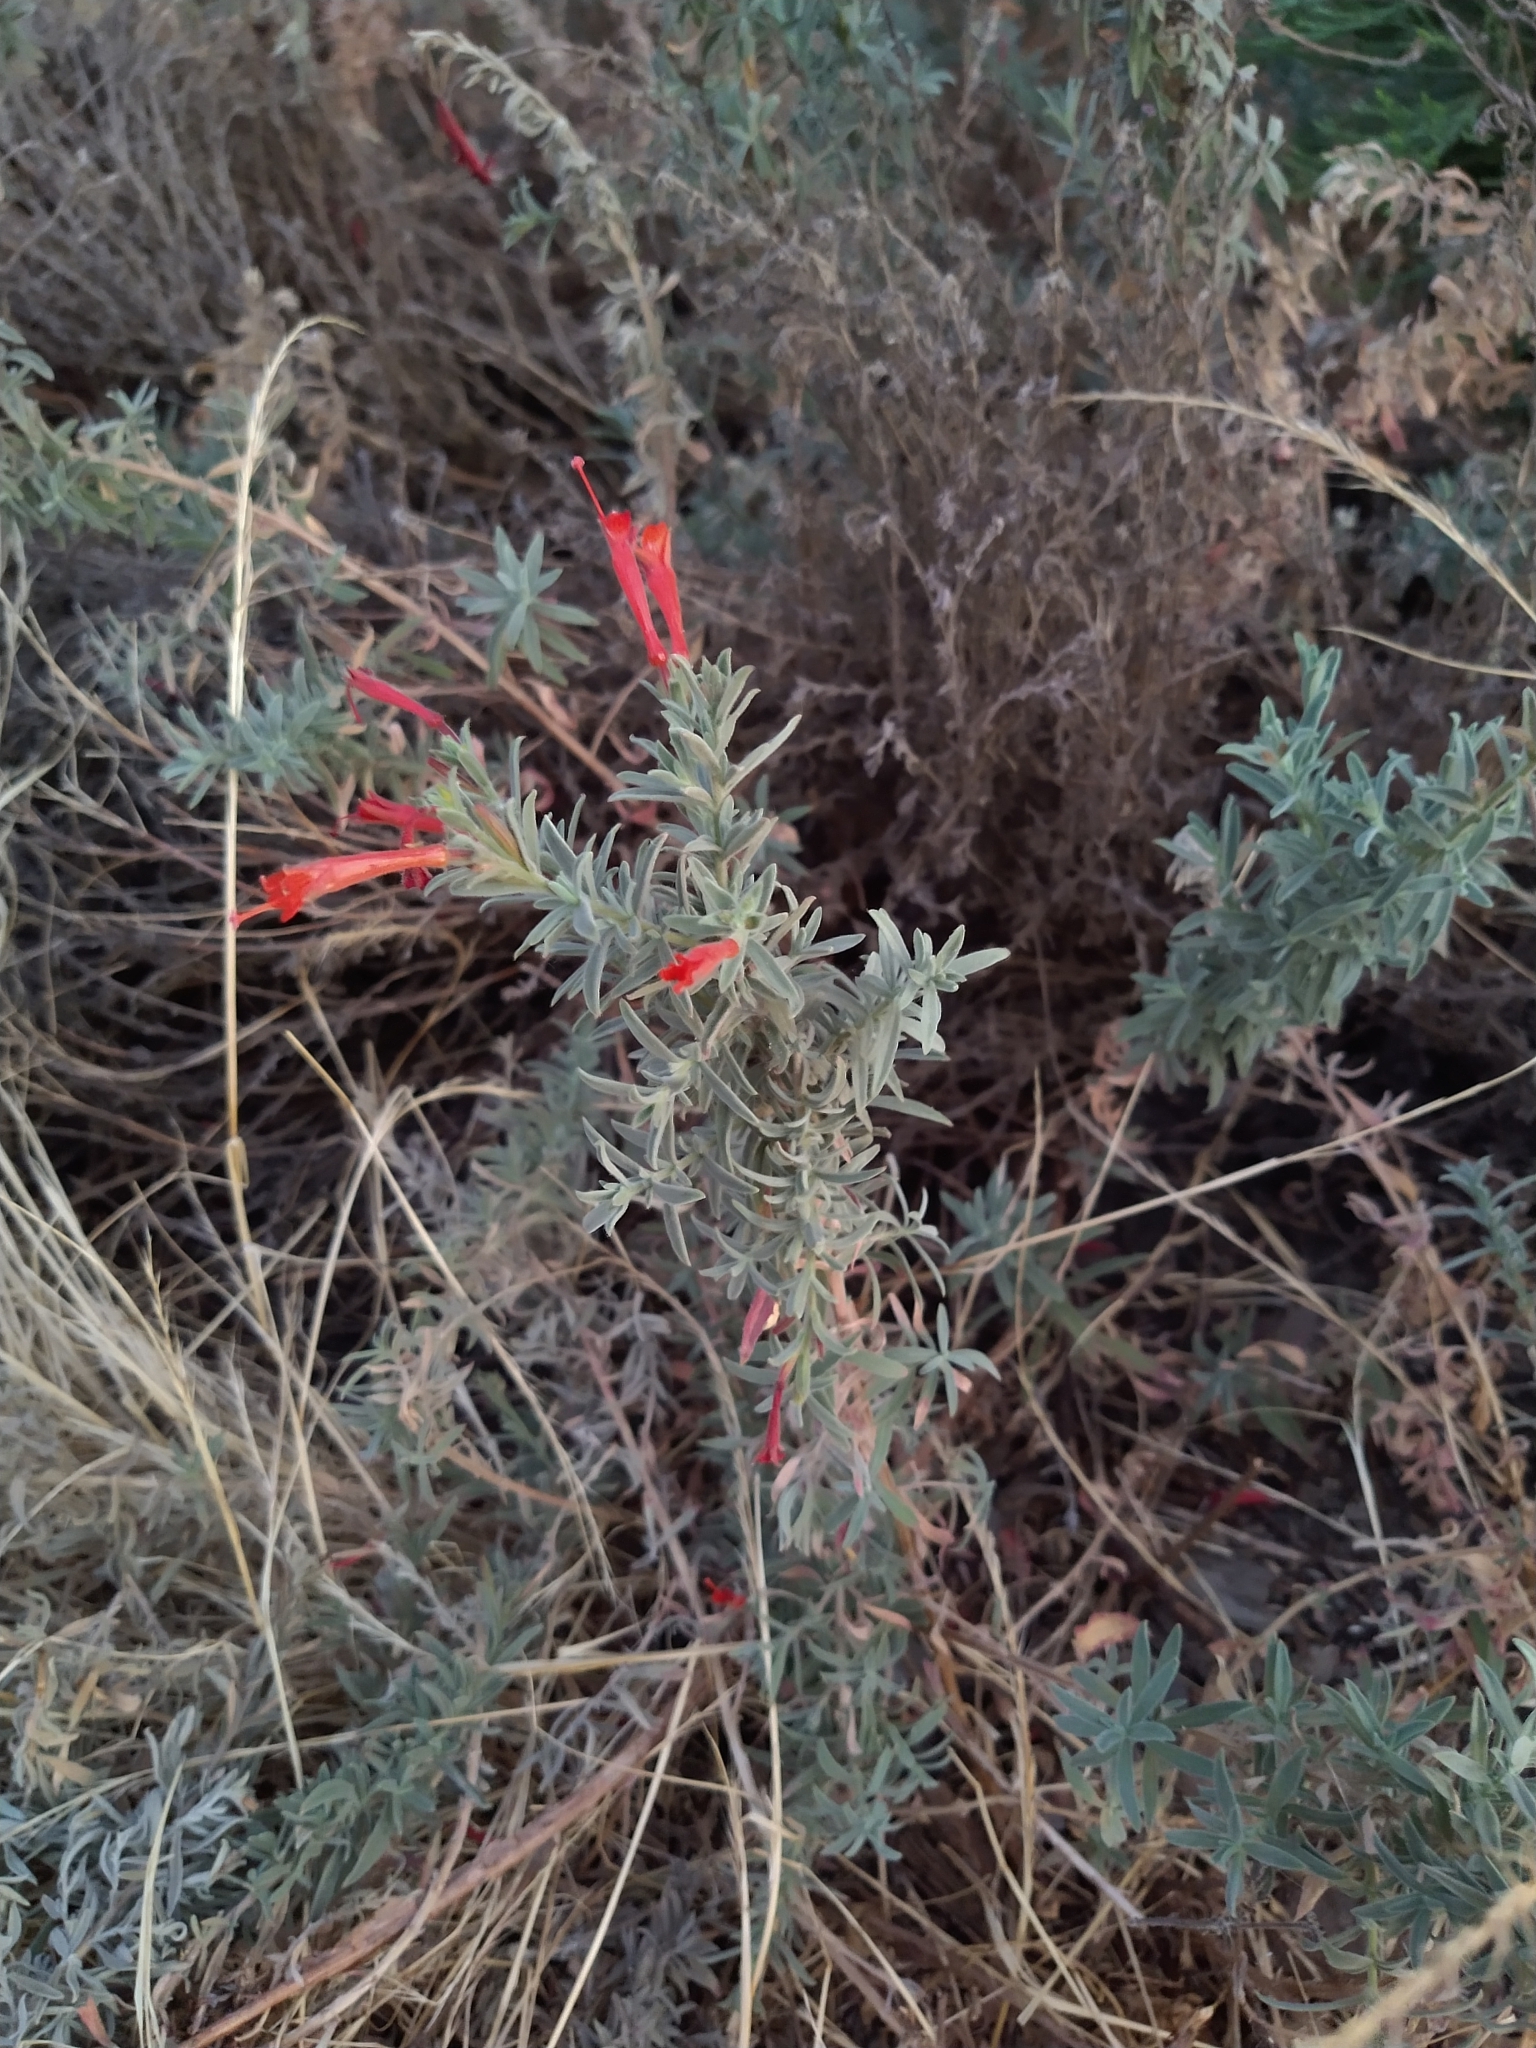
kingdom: Plantae
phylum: Tracheophyta
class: Magnoliopsida
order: Myrtales
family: Onagraceae
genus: Epilobium
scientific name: Epilobium canum
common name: California-fuchsia
